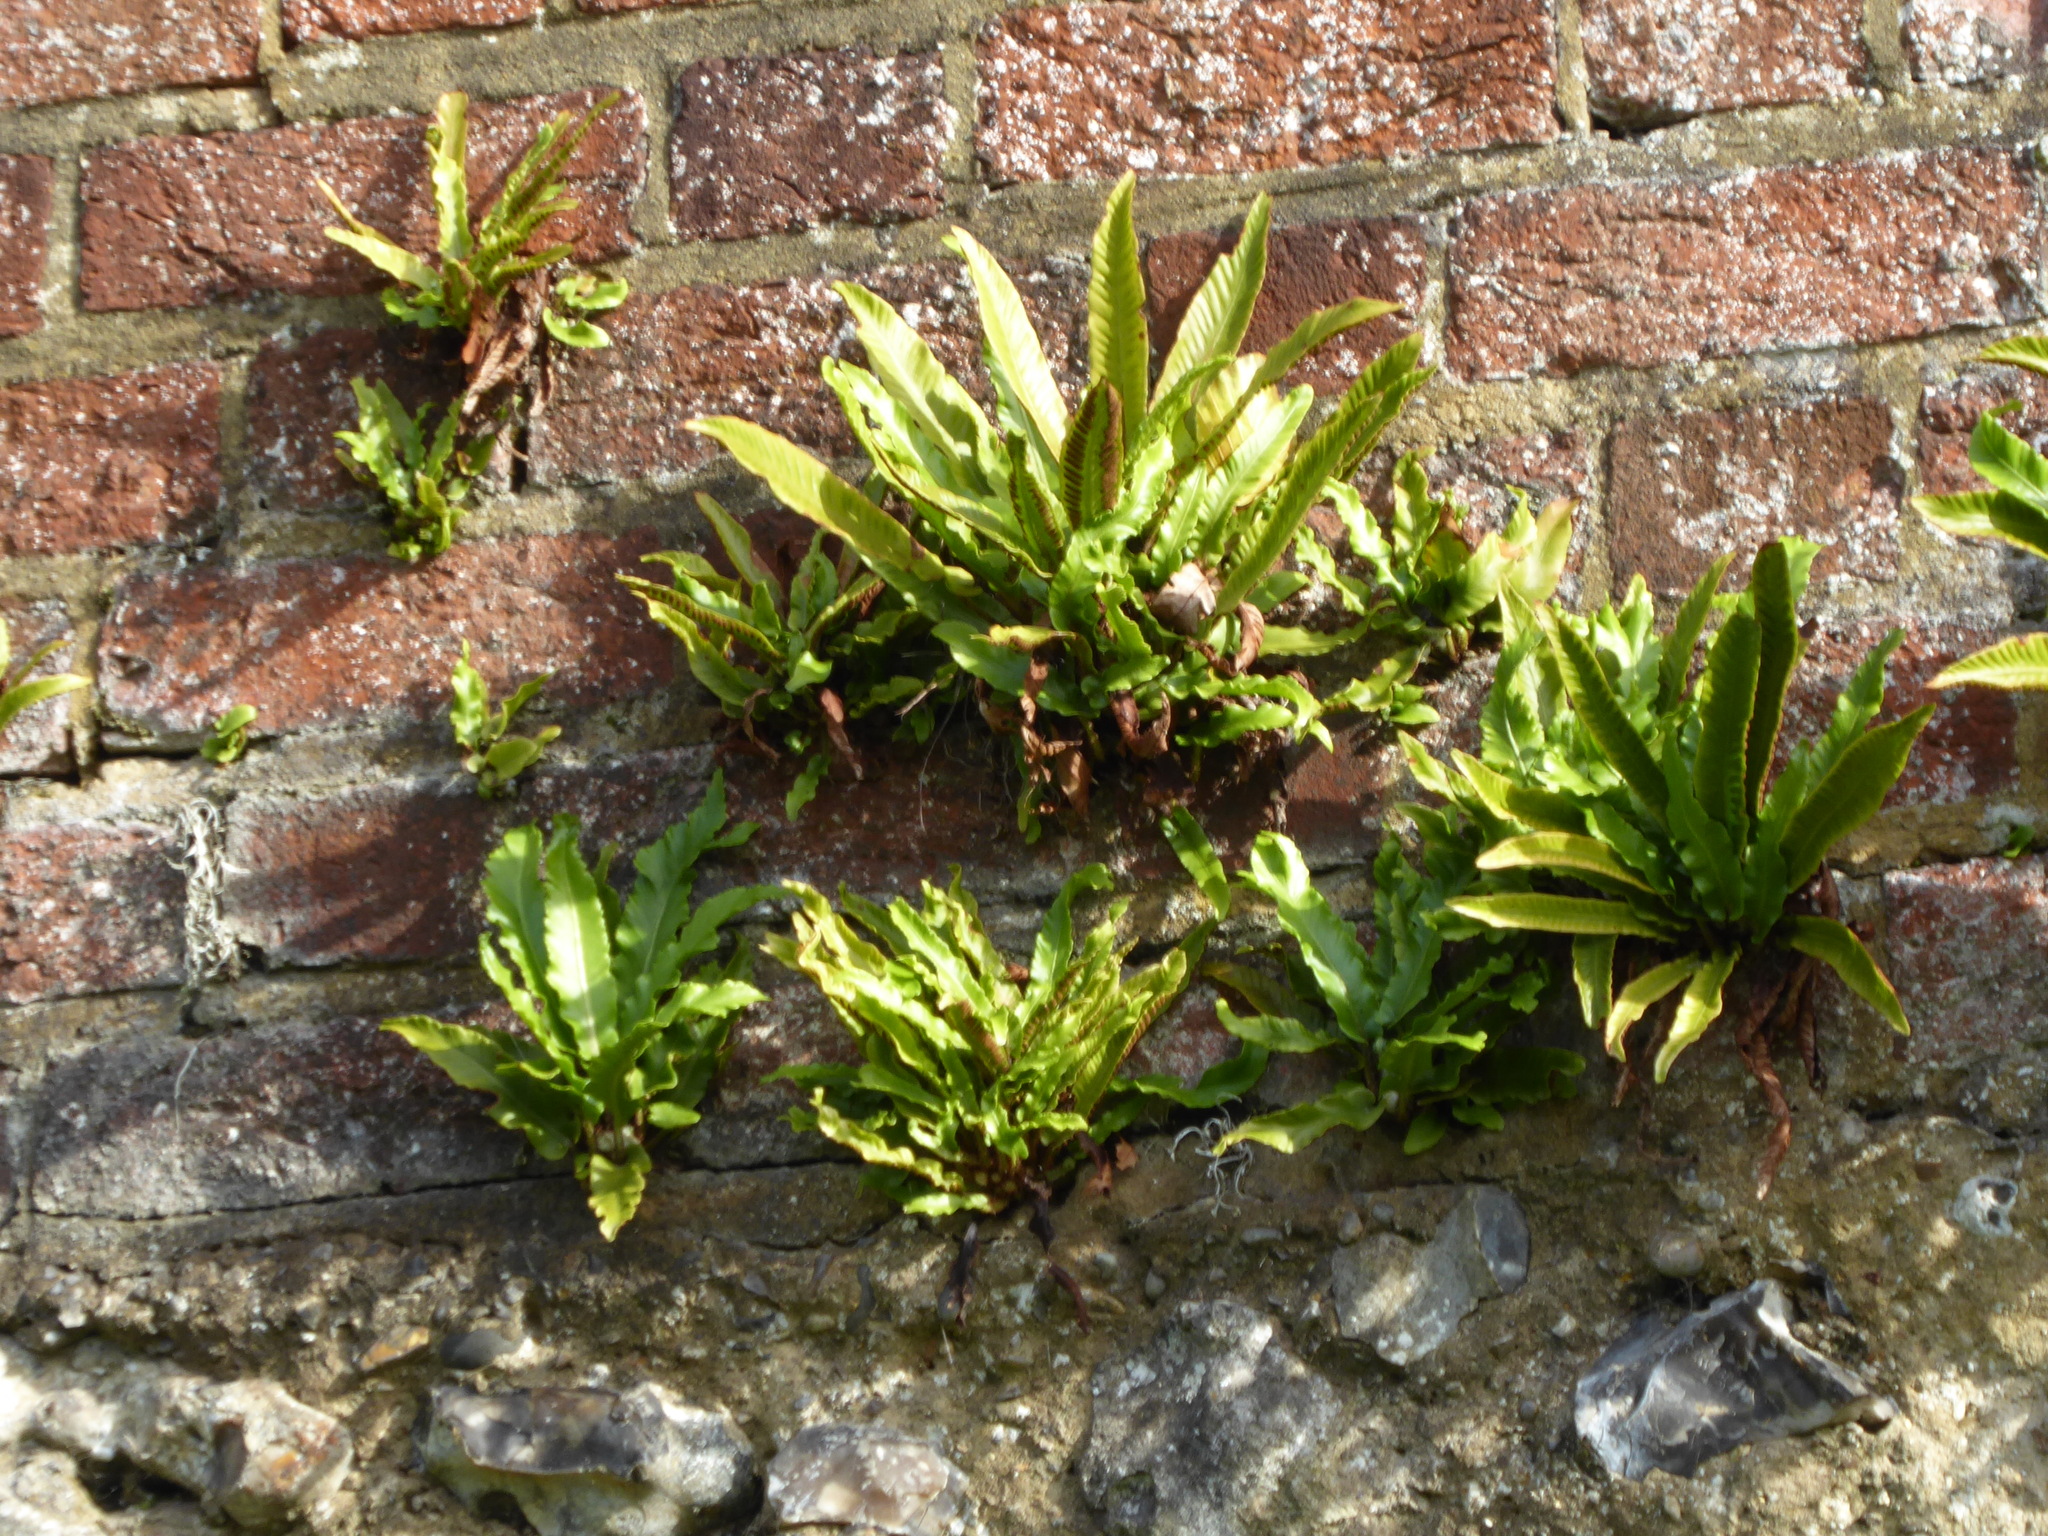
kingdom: Plantae
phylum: Tracheophyta
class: Polypodiopsida
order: Polypodiales
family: Aspleniaceae
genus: Asplenium
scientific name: Asplenium scolopendrium
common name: Hart's-tongue fern
